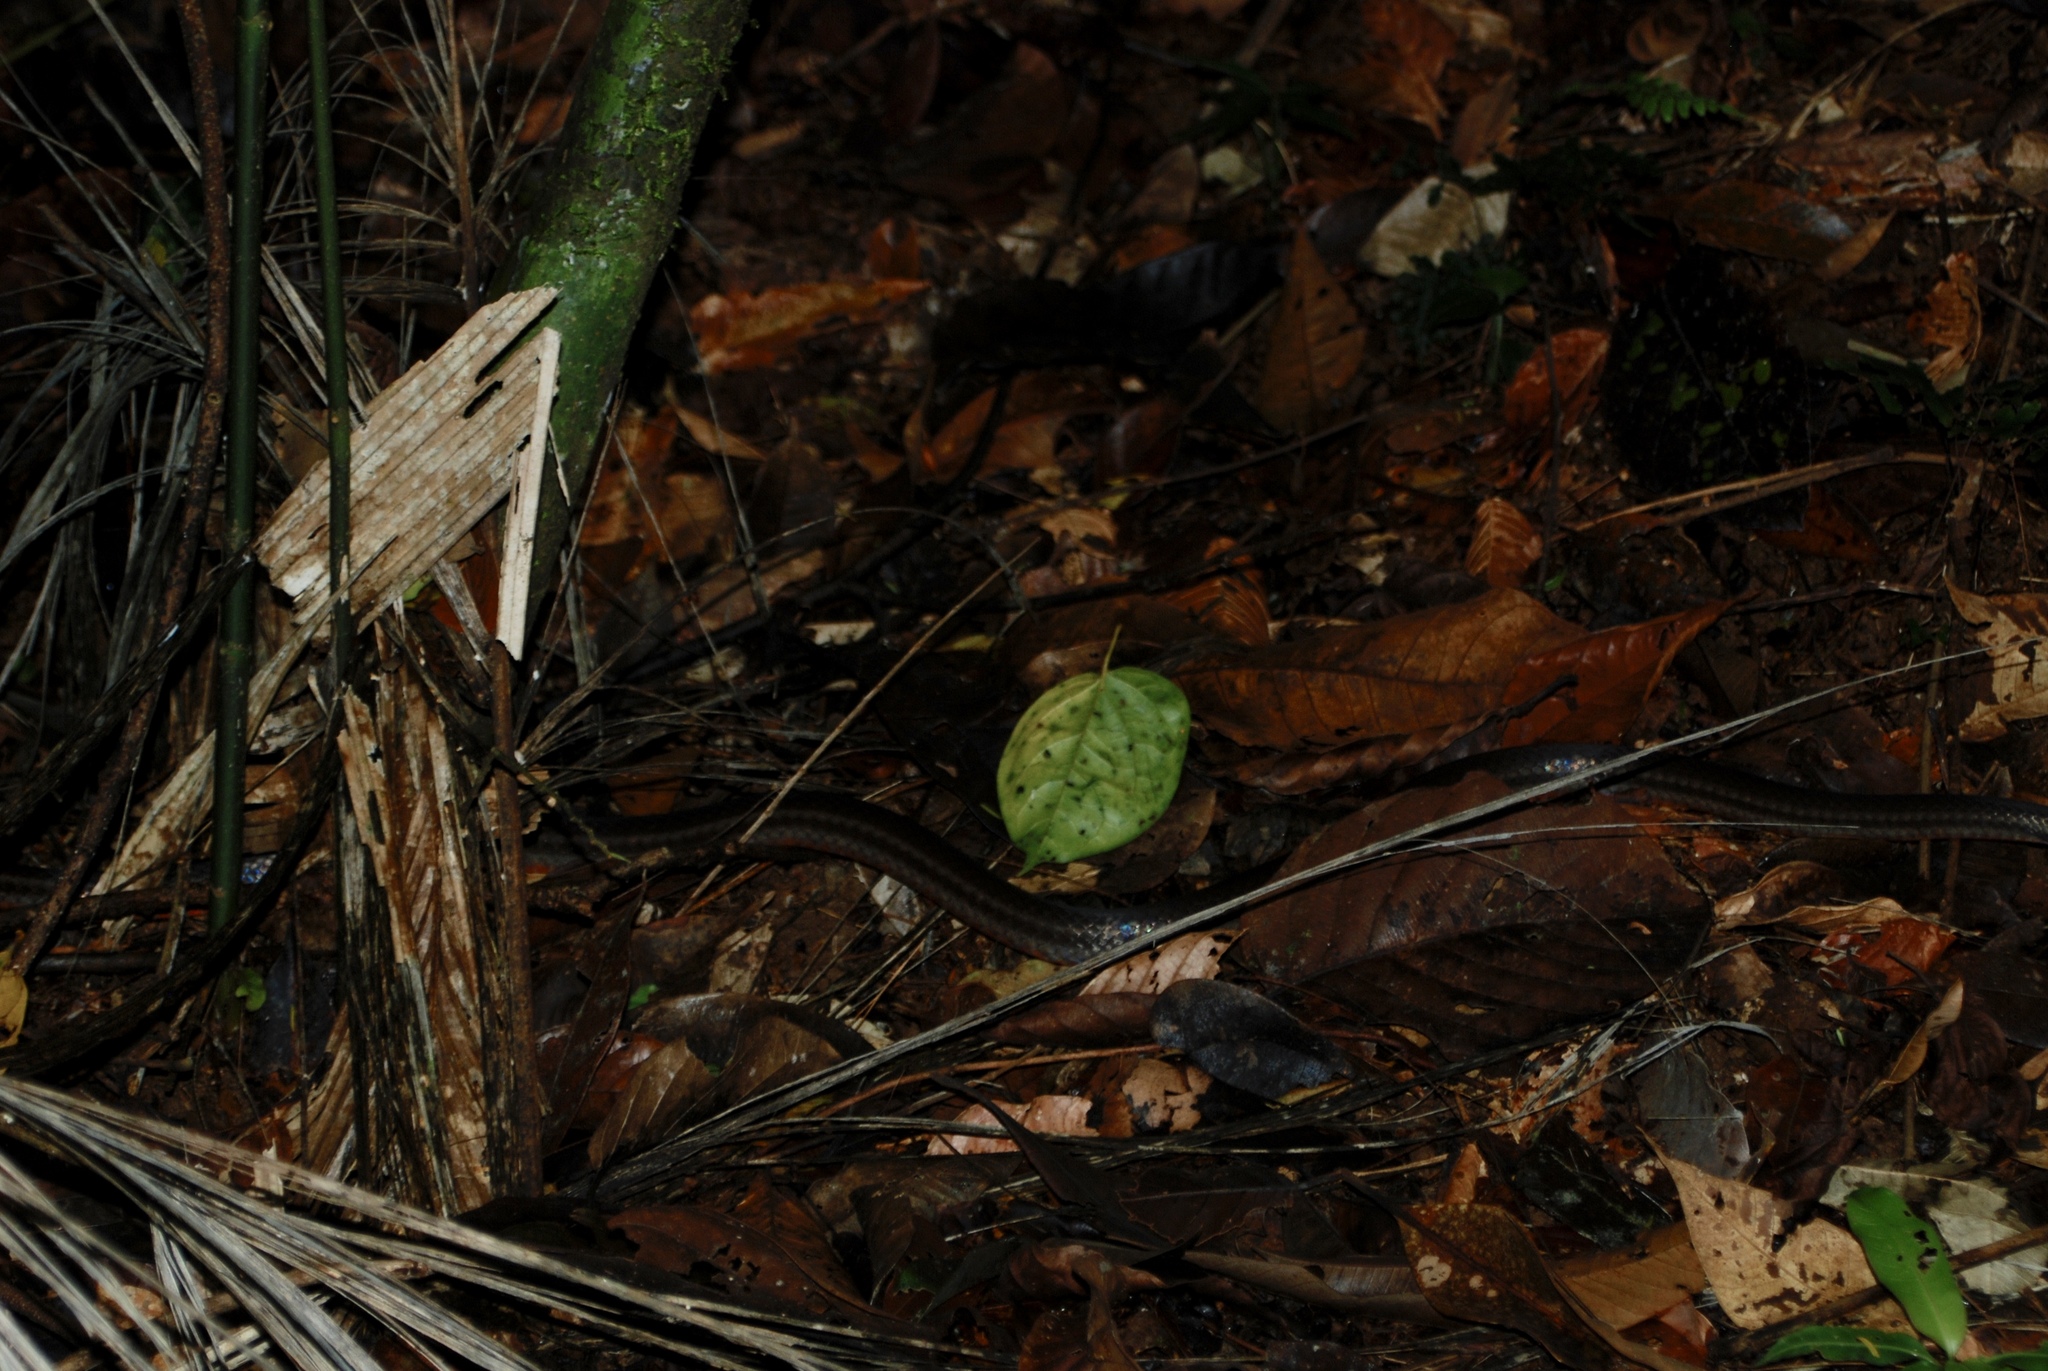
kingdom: Animalia
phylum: Chordata
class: Squamata
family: Colubridae
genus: Mastigodryas
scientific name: Mastigodryas melanolomus
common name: Salmon-bellied racer
